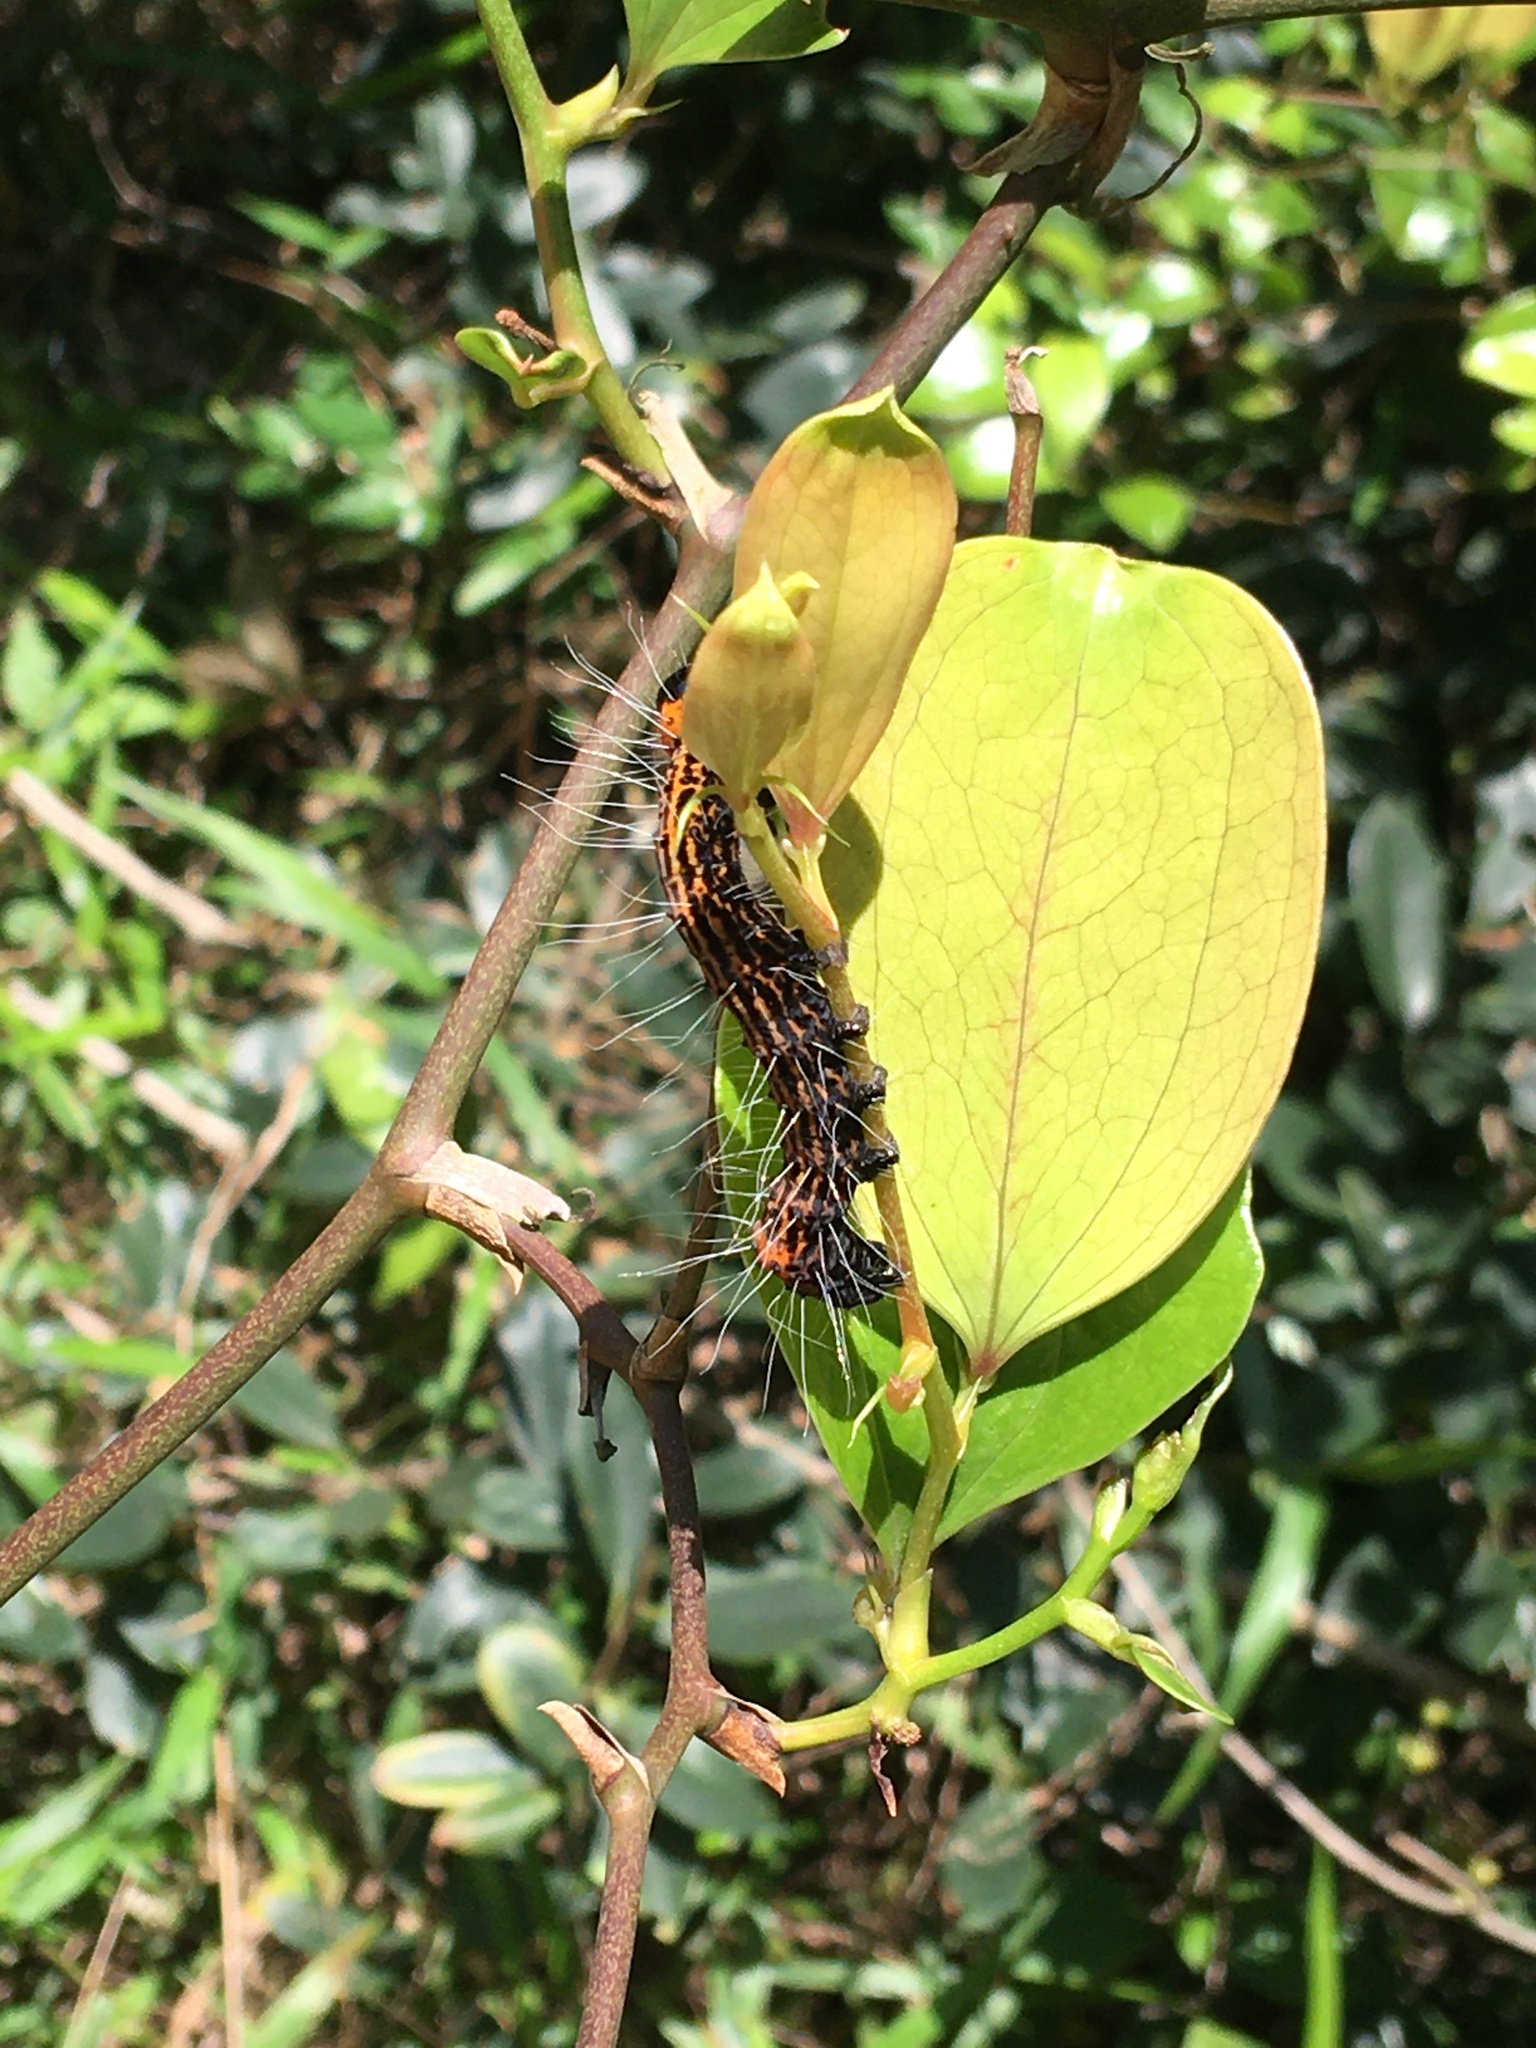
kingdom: Animalia
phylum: Arthropoda
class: Insecta
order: Lepidoptera
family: Noctuidae
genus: Chelonomorpha
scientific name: Chelonomorpha japana
